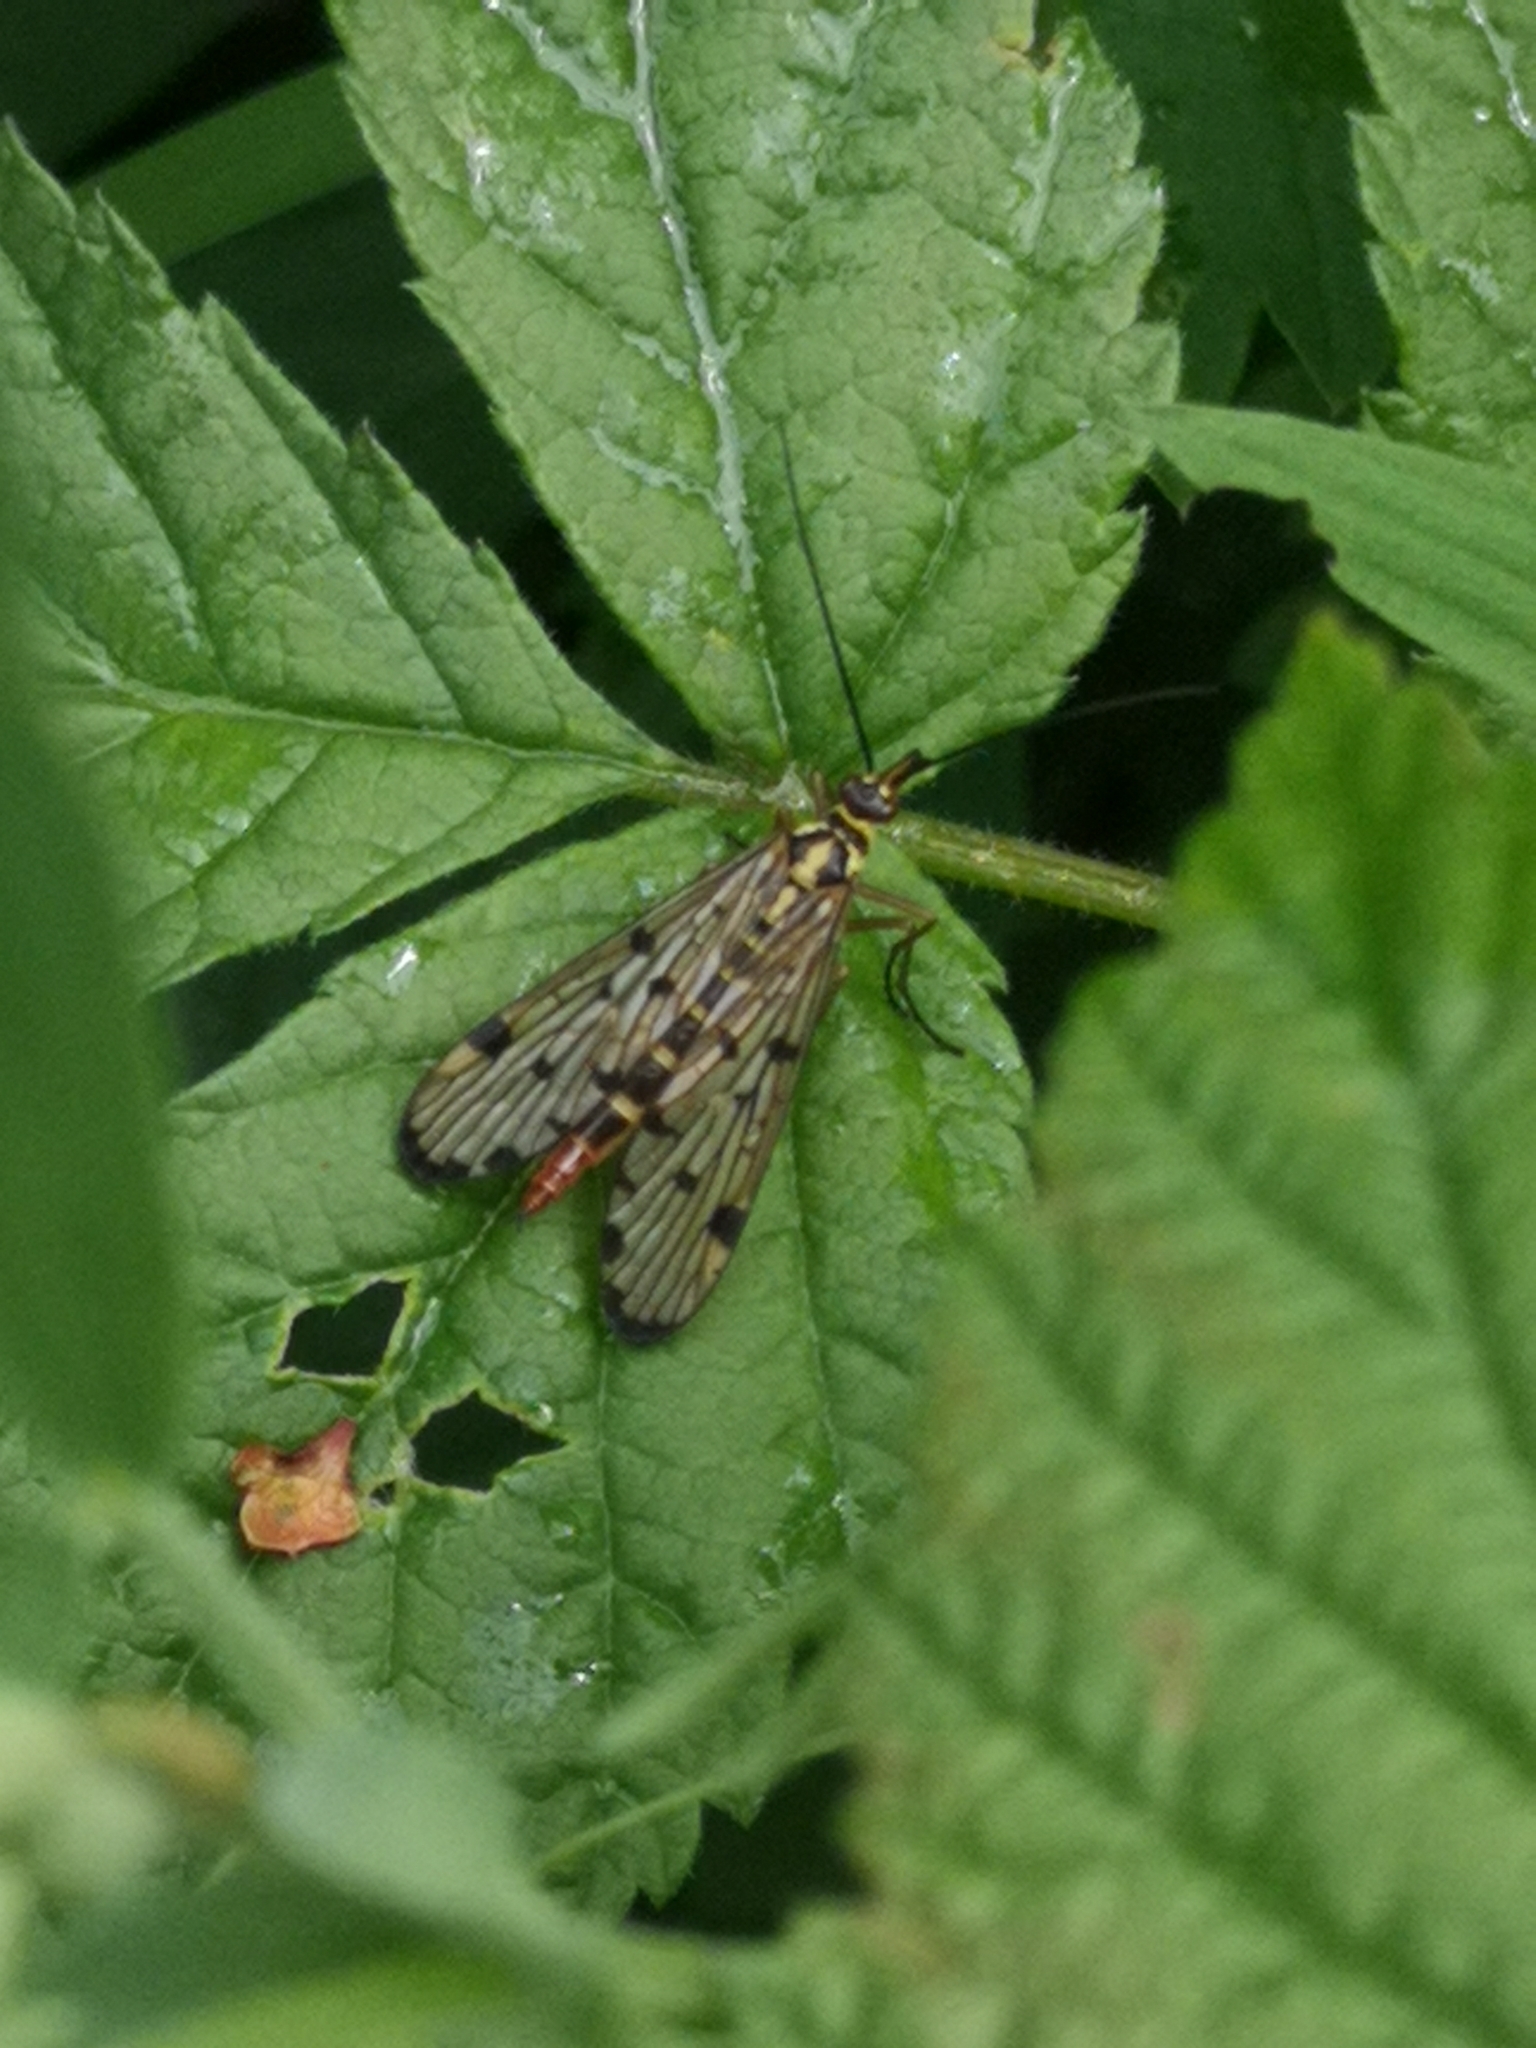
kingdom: Animalia
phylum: Arthropoda
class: Insecta
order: Mecoptera
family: Panorpidae
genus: Panorpa
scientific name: Panorpa communis
